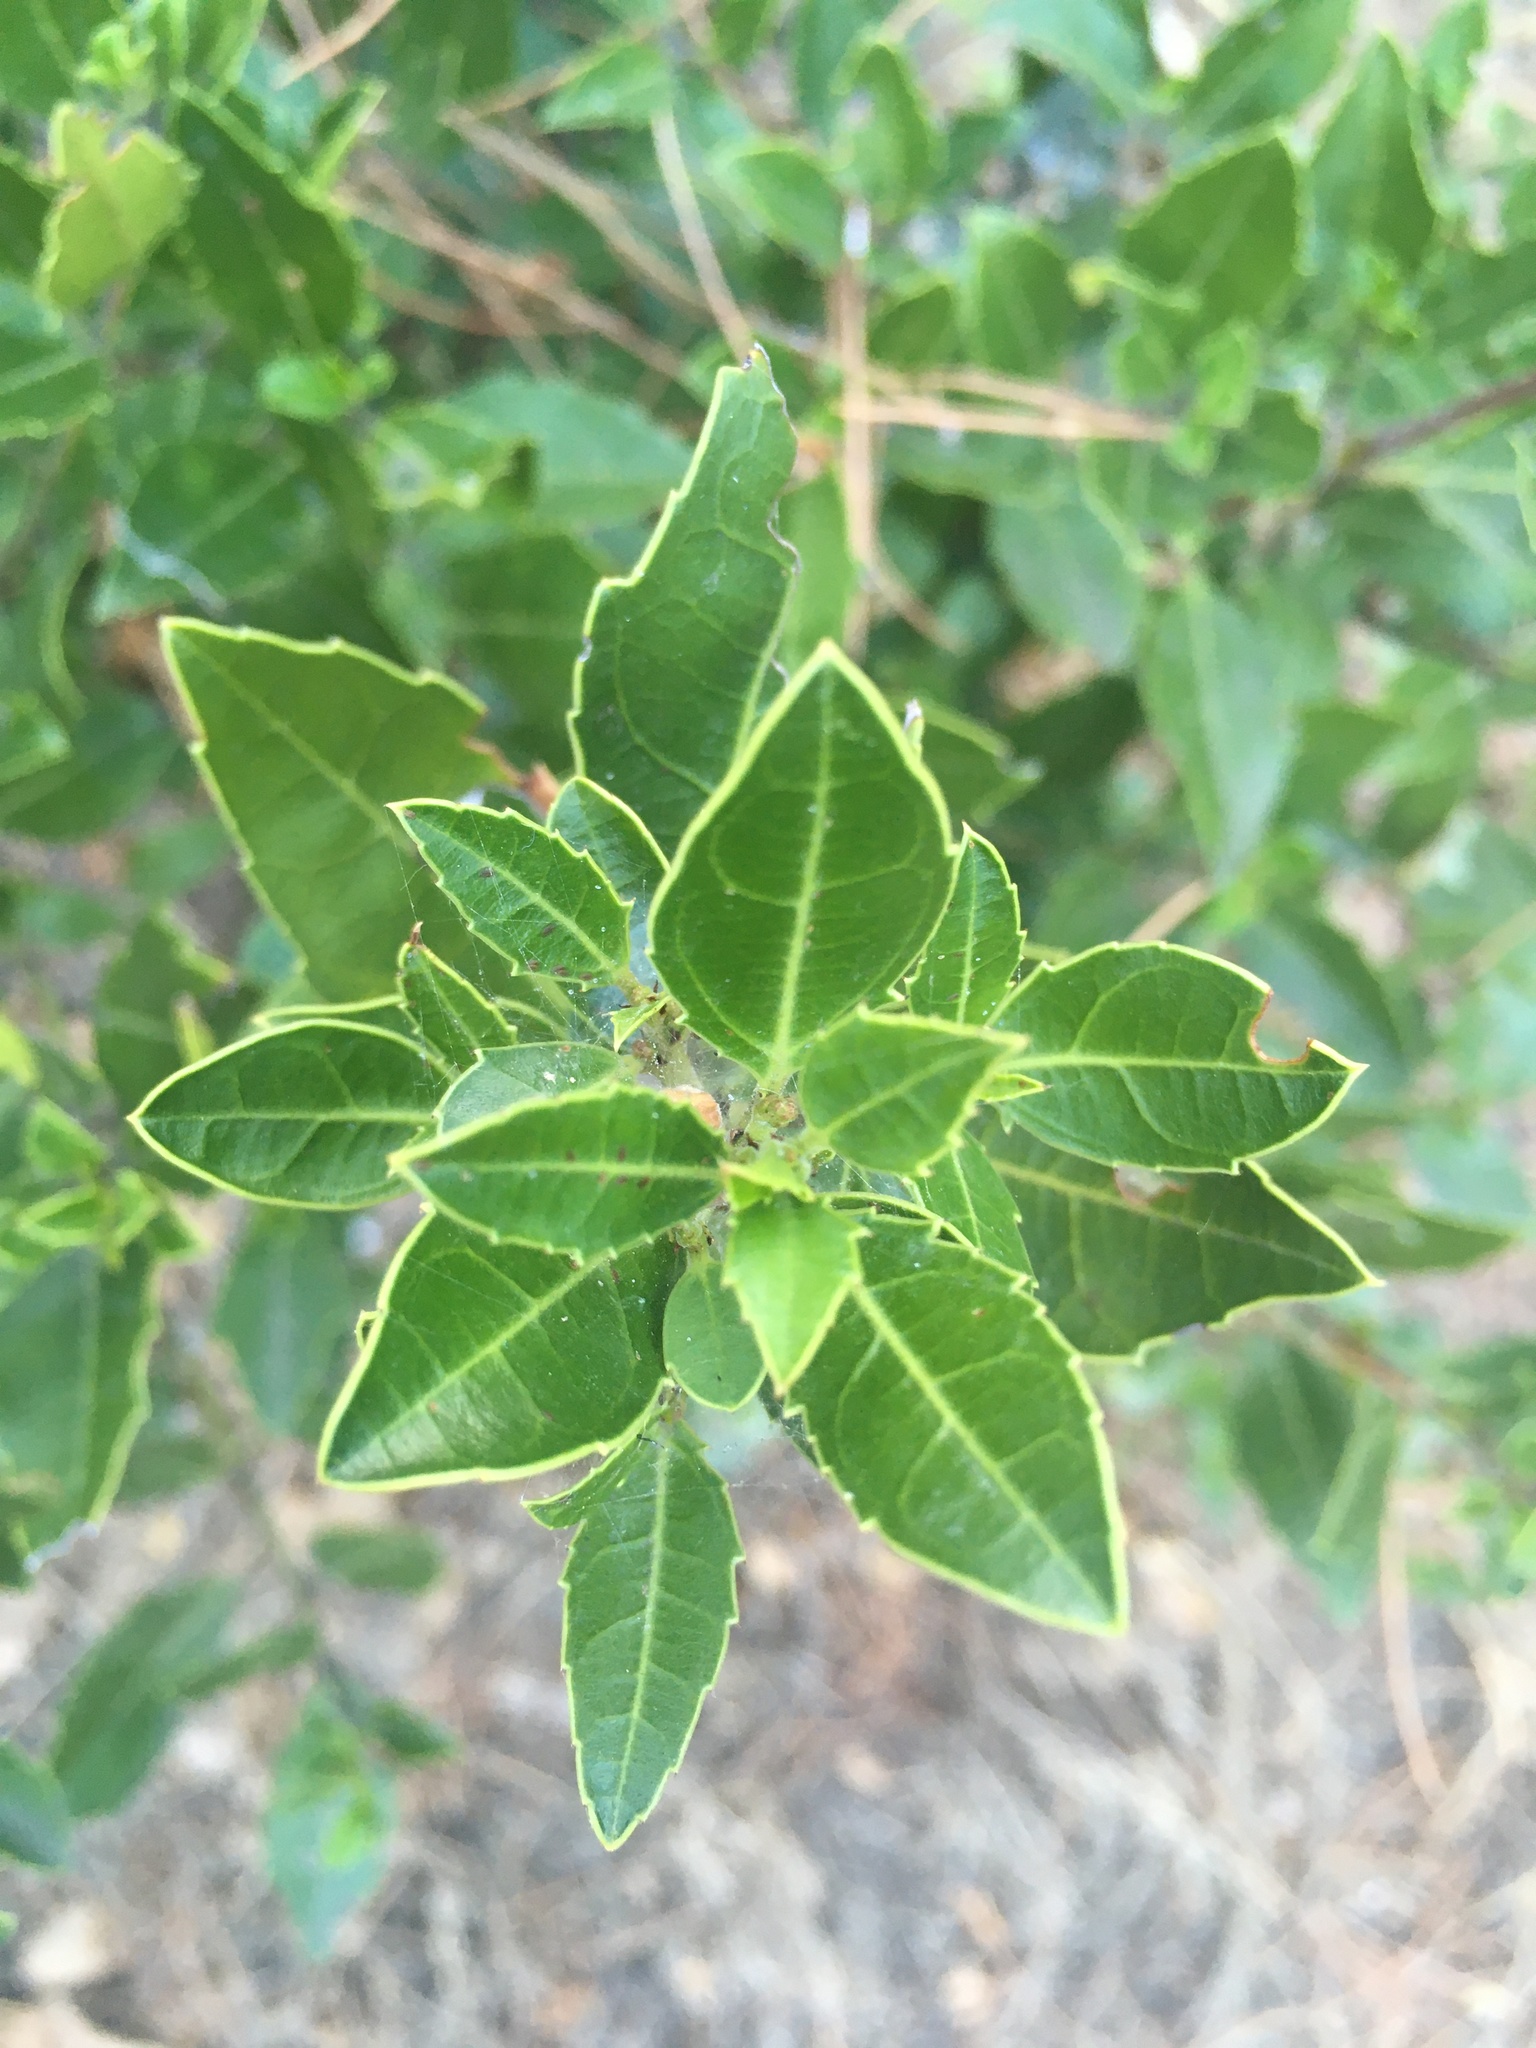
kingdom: Plantae
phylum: Tracheophyta
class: Magnoliopsida
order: Rosales
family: Rhamnaceae
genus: Rhamnus
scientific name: Rhamnus alaternus
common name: Mediterranean buckthorn
